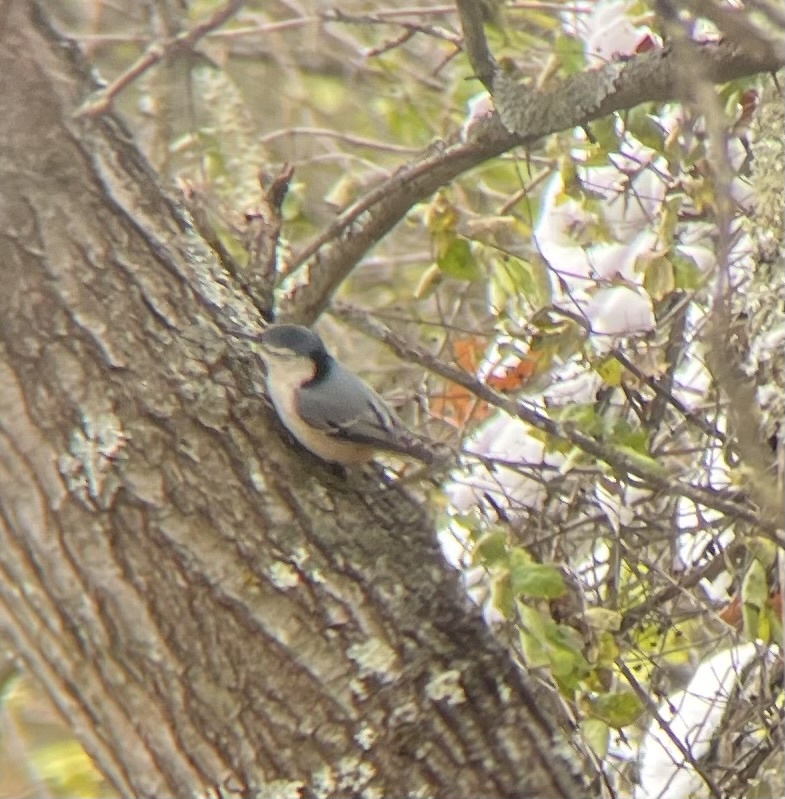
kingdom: Animalia
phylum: Chordata
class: Aves
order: Passeriformes
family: Sittidae
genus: Sitta
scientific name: Sitta carolinensis
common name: White-breasted nuthatch
